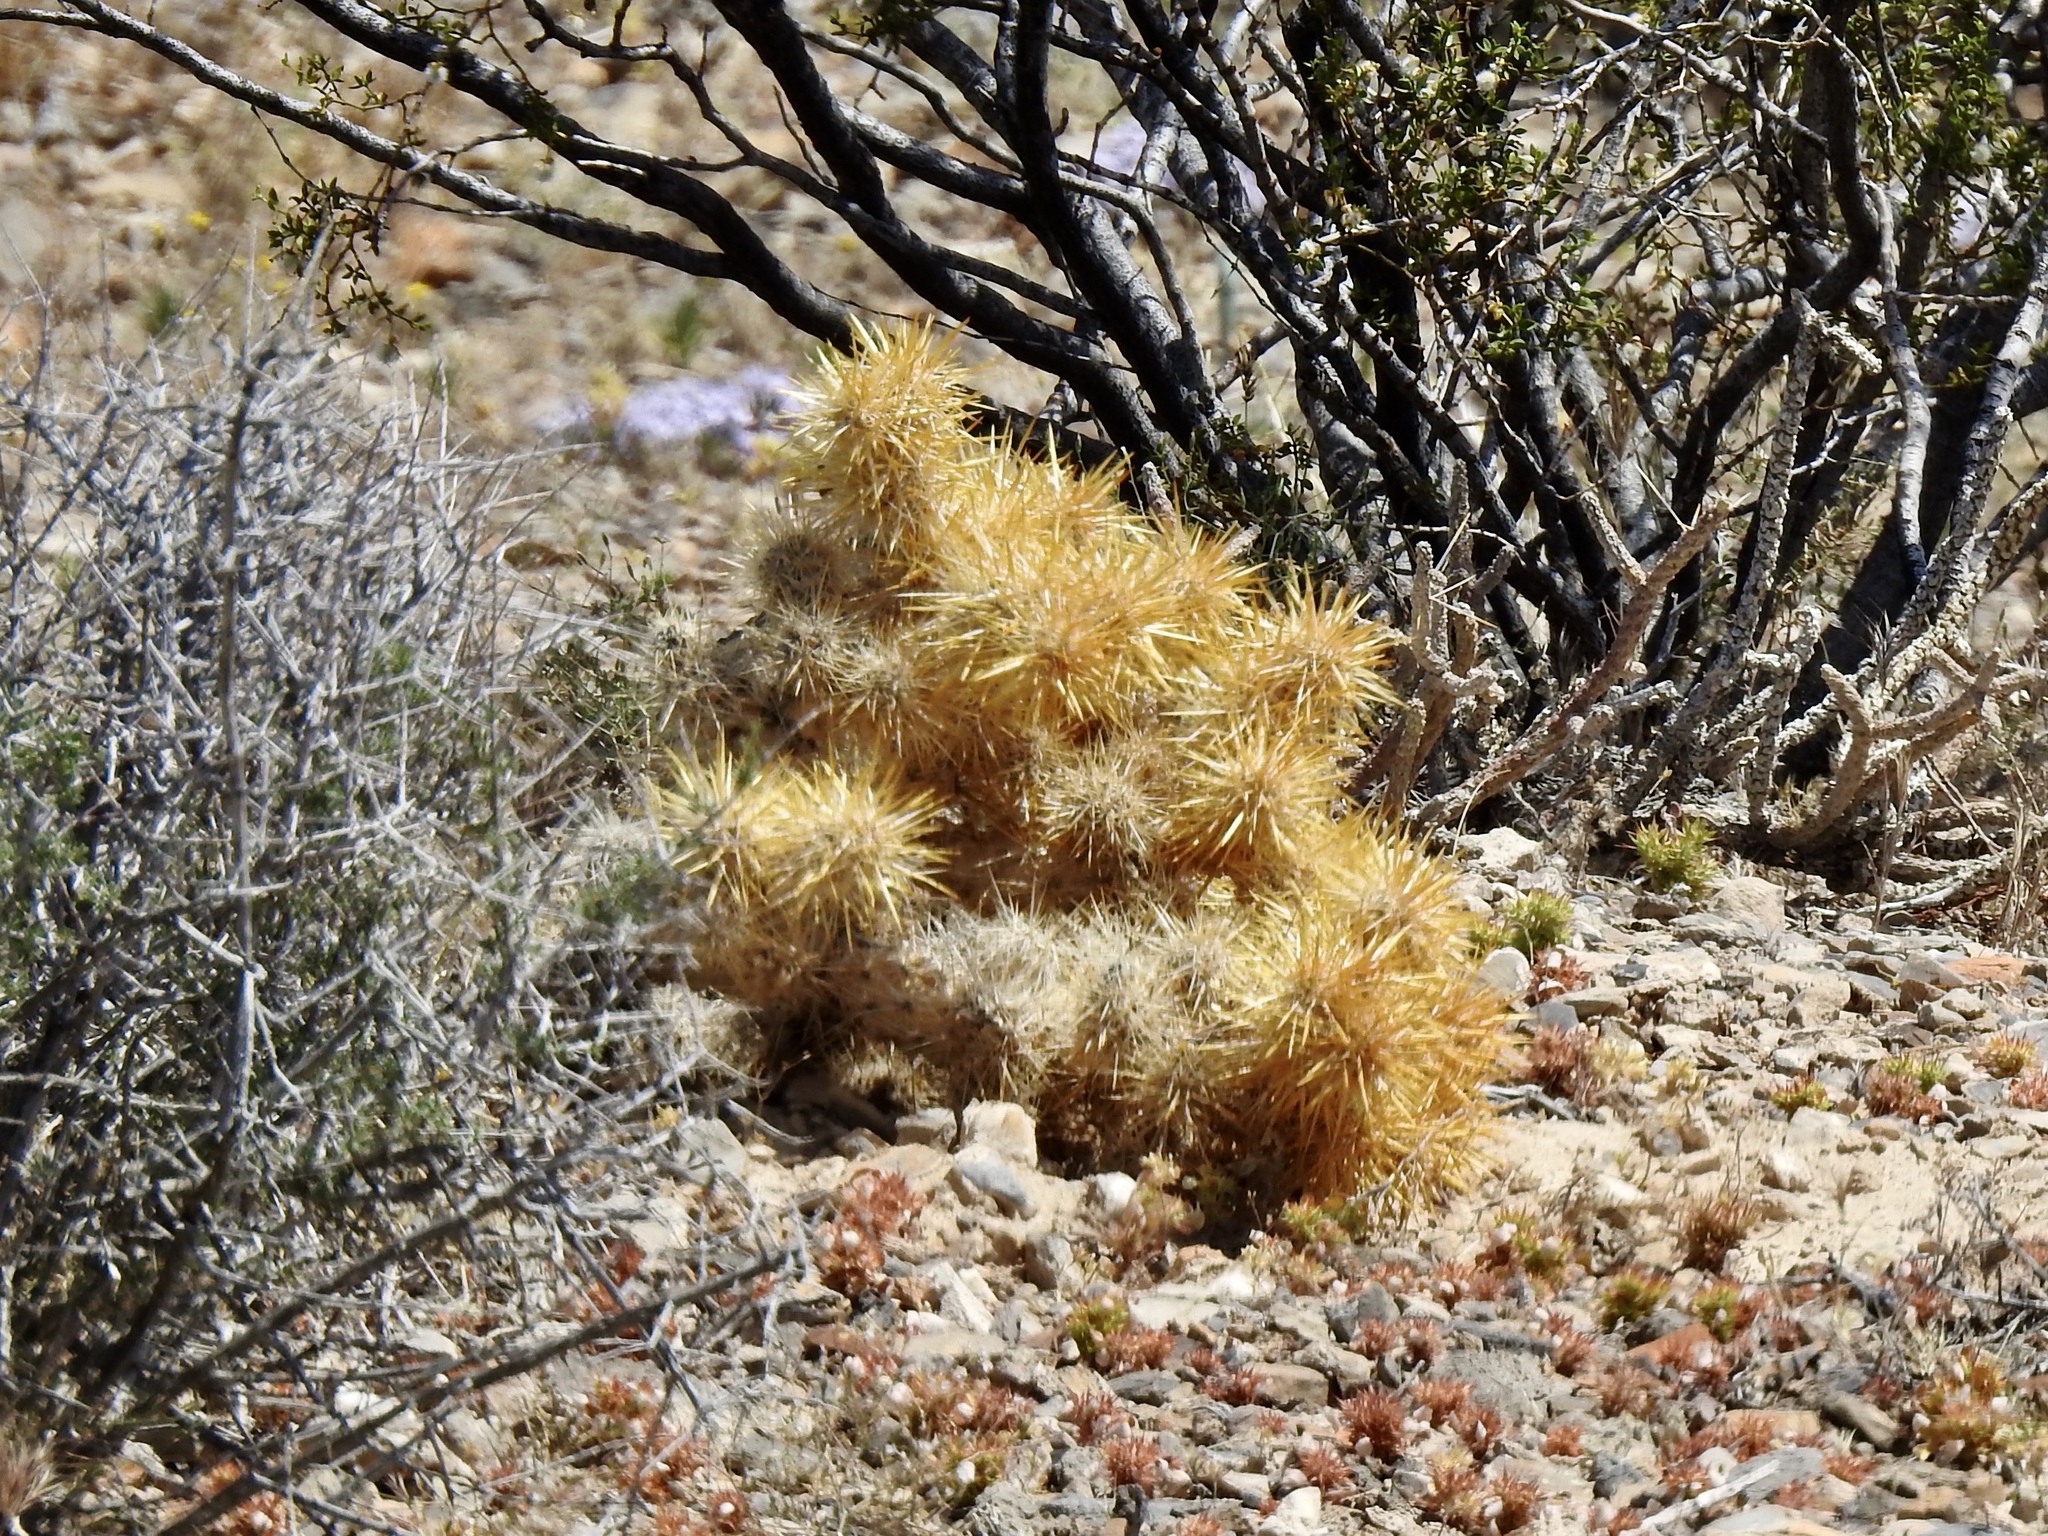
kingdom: Plantae
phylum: Tracheophyta
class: Magnoliopsida
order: Caryophyllales
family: Cactaceae
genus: Cylindropuntia
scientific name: Cylindropuntia echinocarpa
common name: Ground cholla
